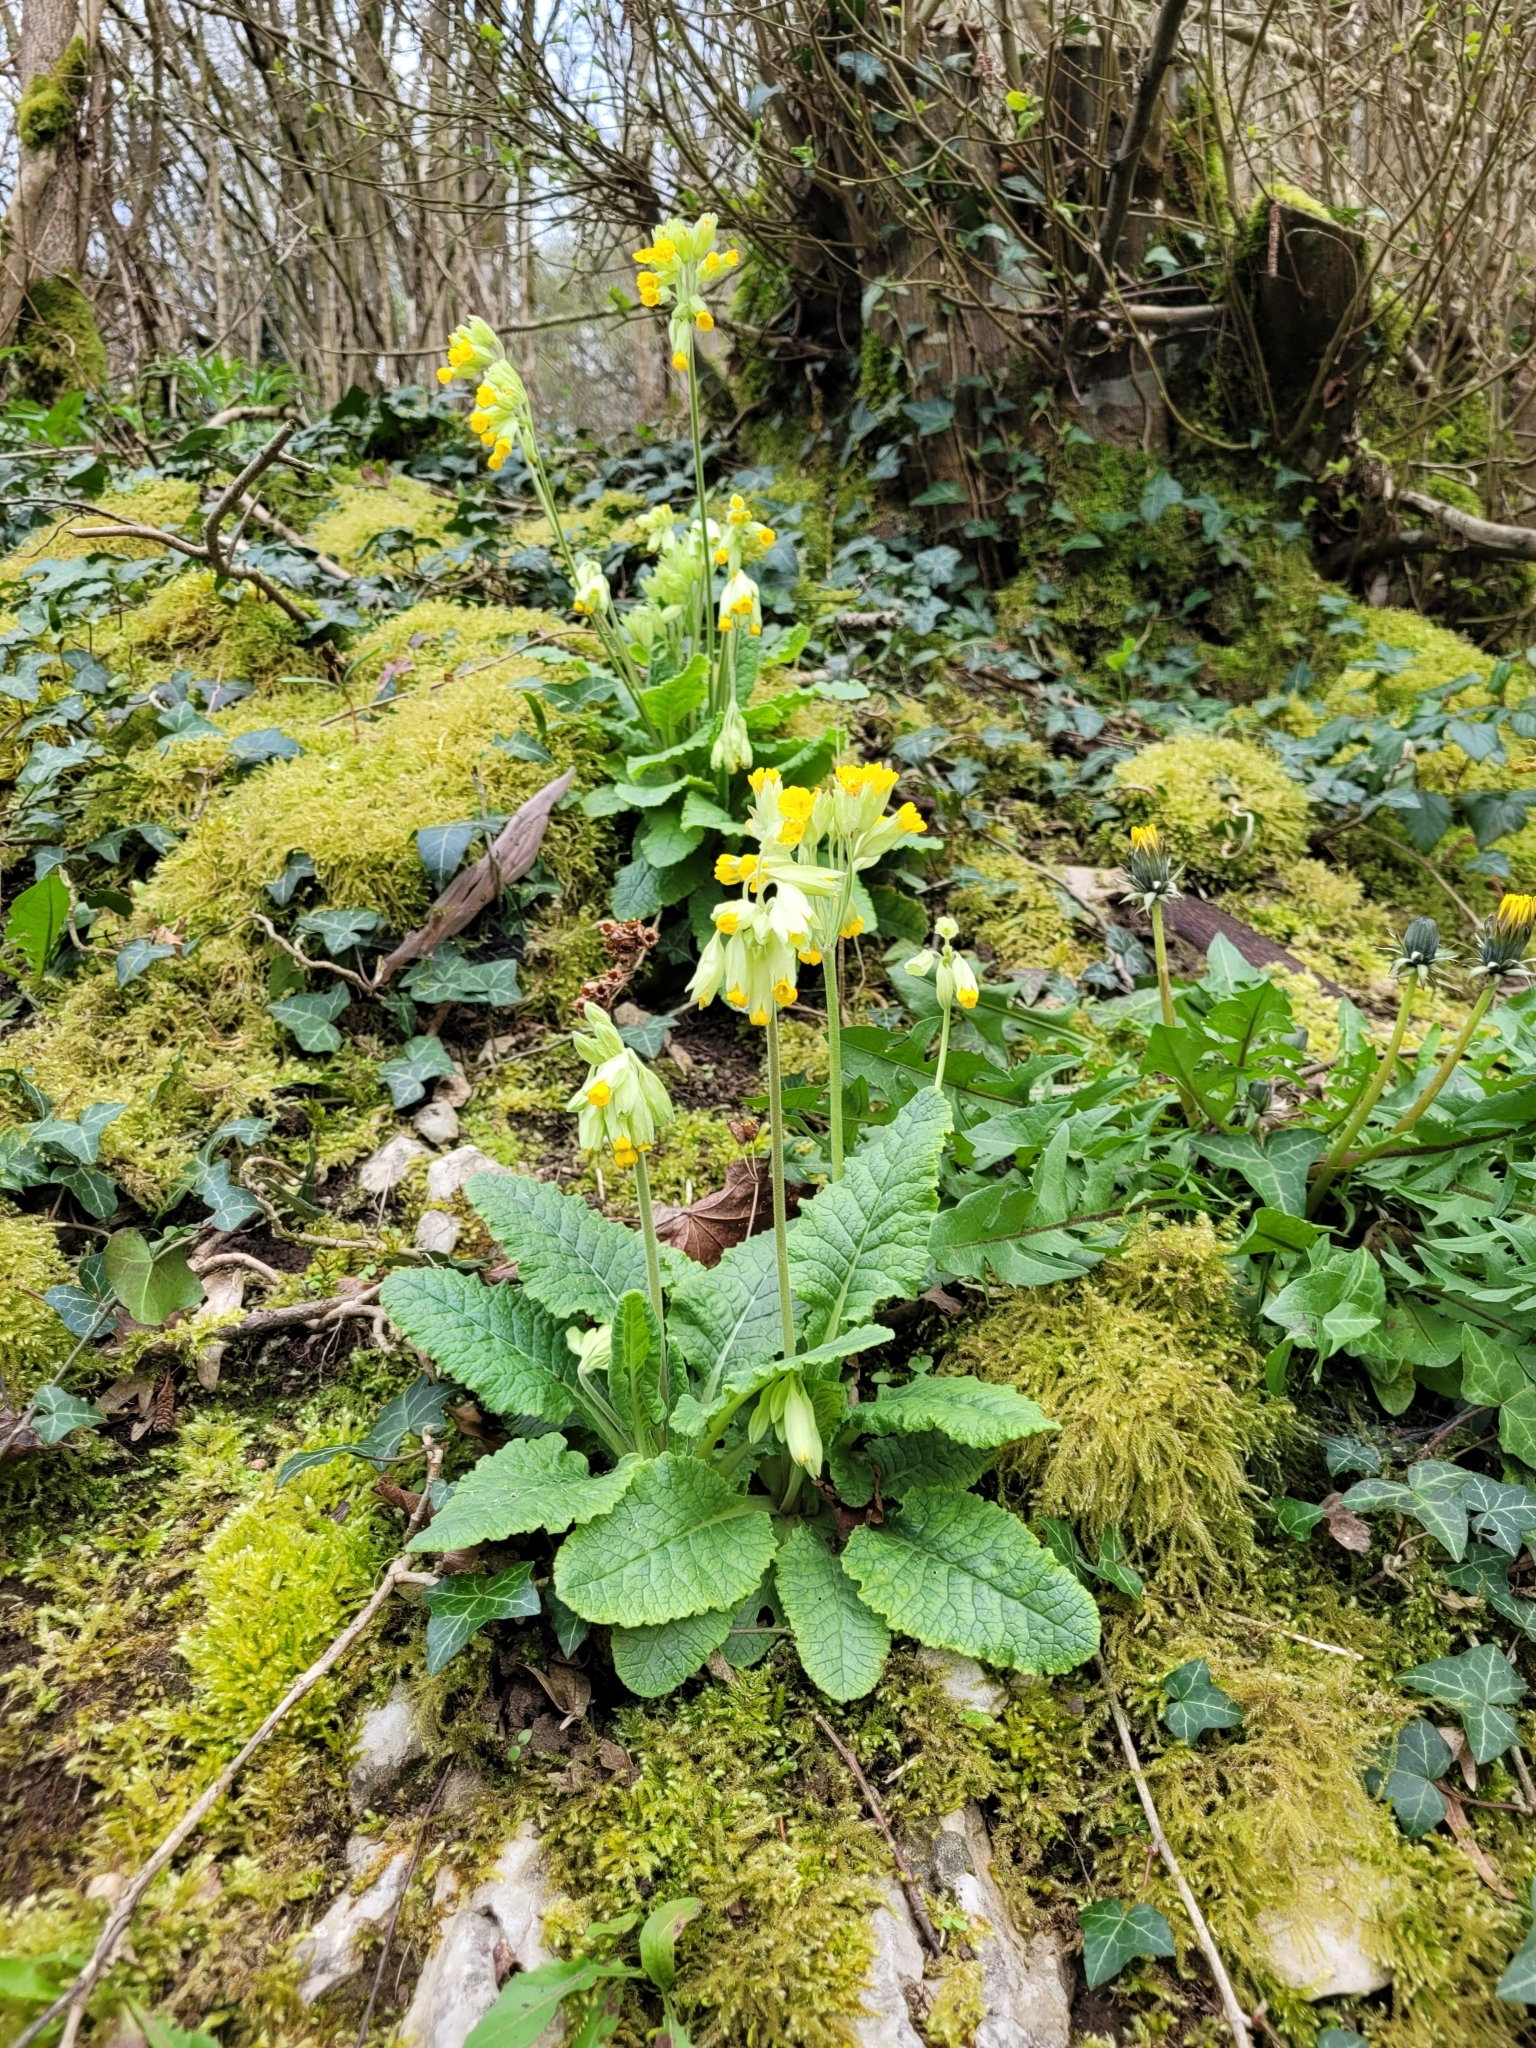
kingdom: Plantae
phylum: Tracheophyta
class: Magnoliopsida
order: Ericales
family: Primulaceae
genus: Primula
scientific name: Primula veris
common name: Cowslip
